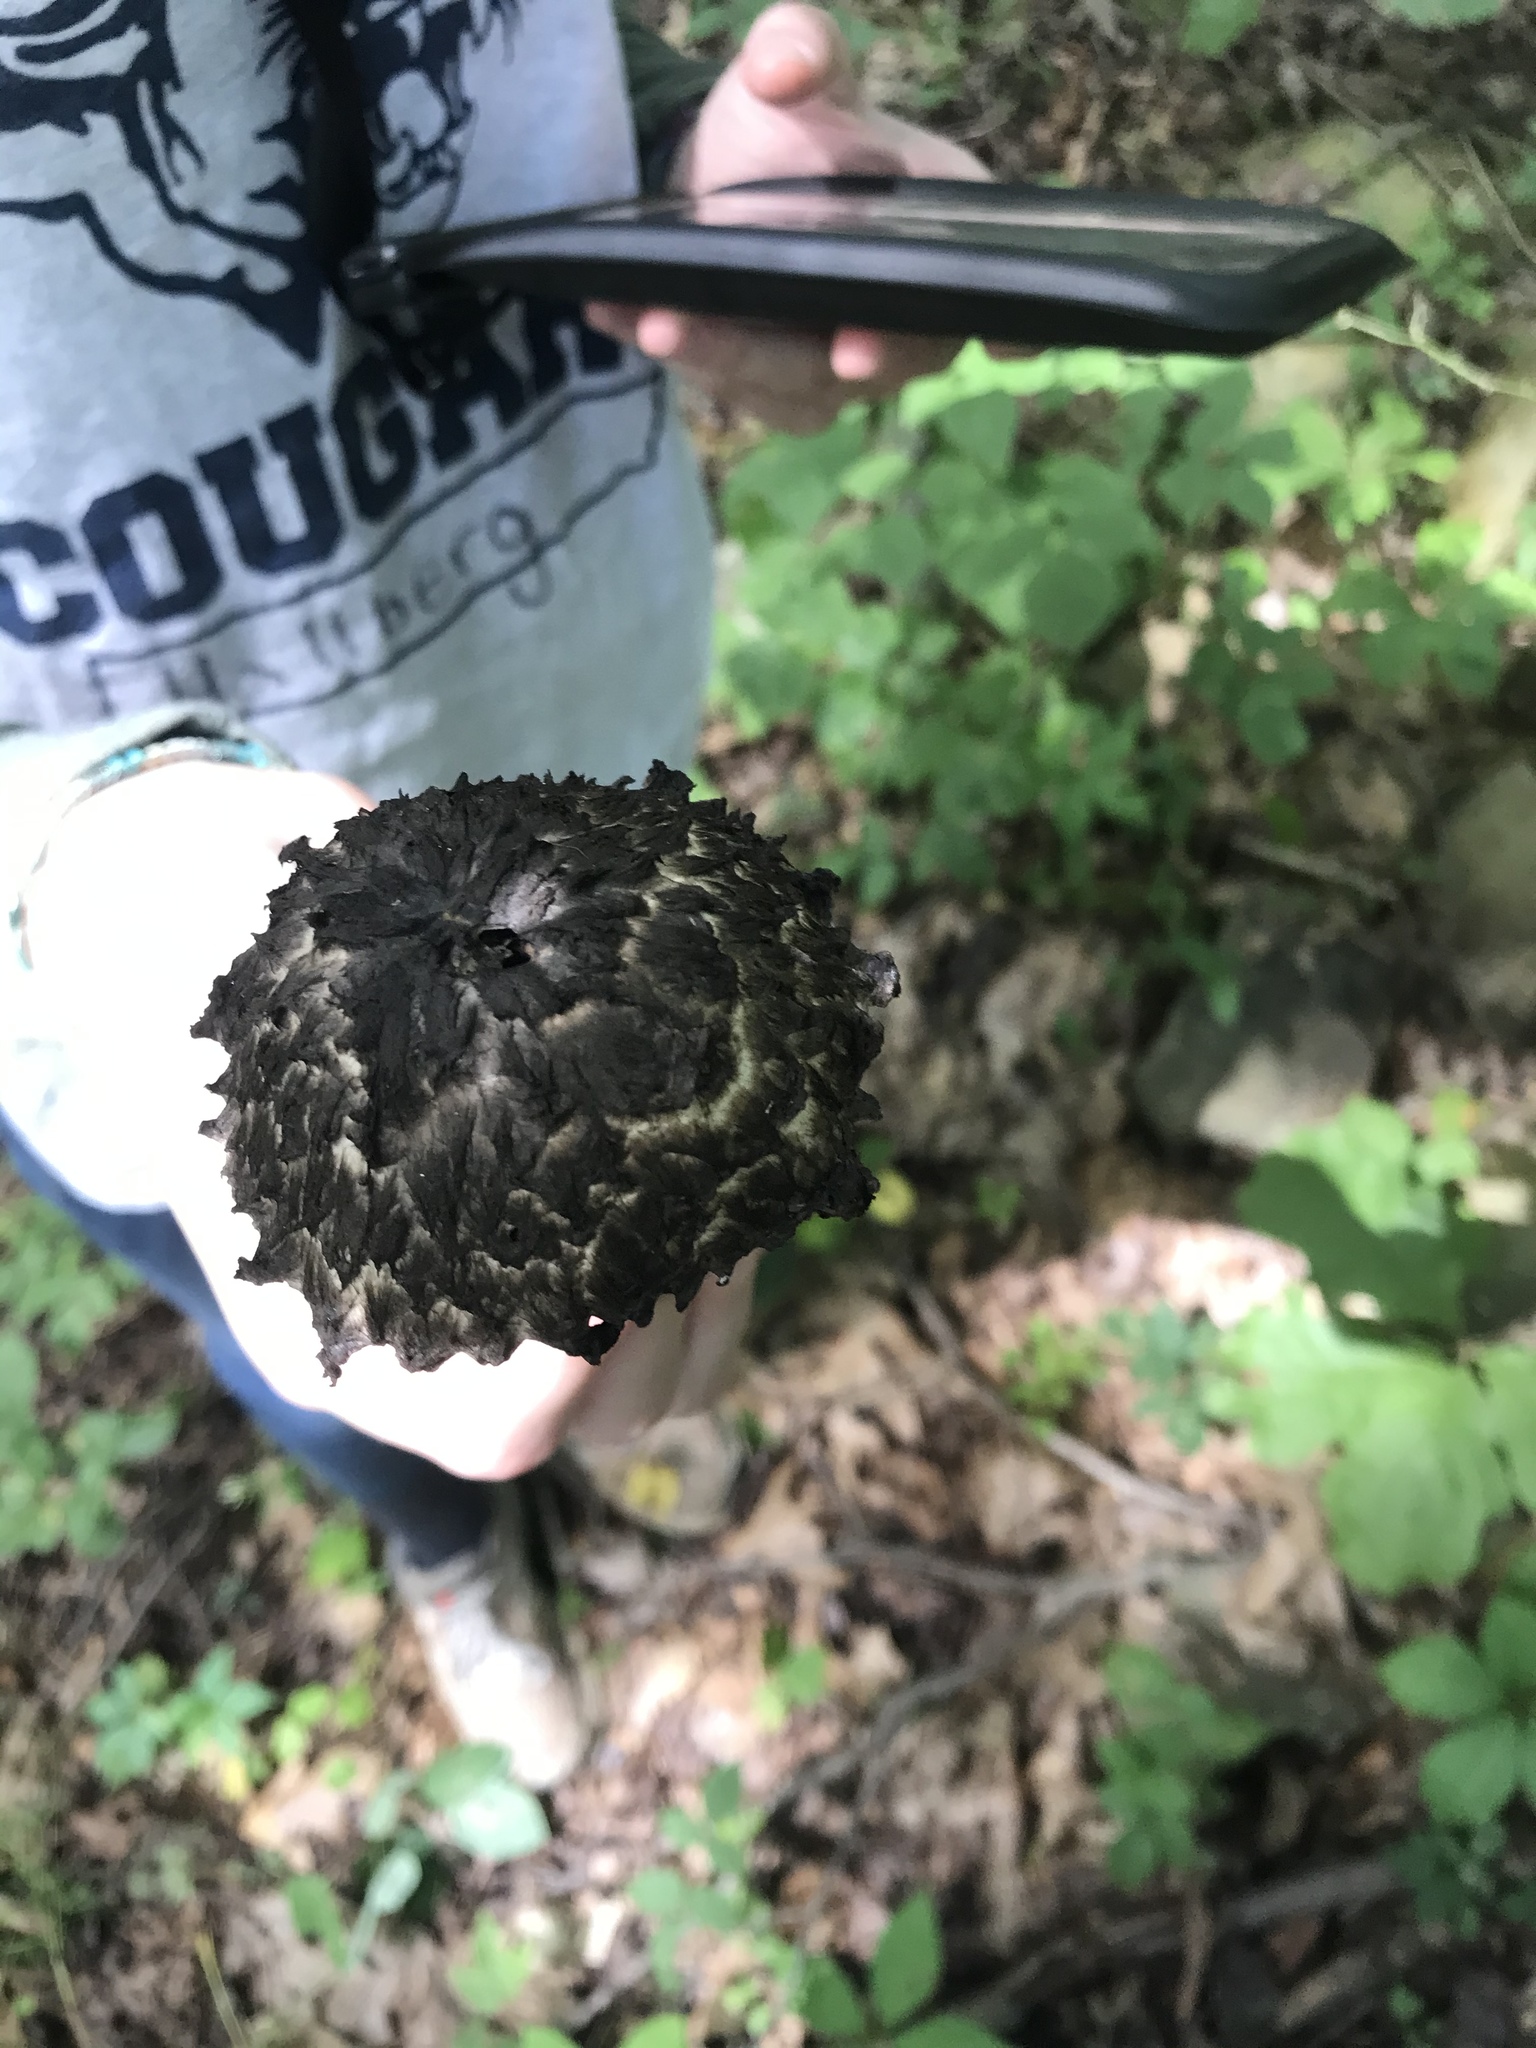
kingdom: Fungi
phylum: Basidiomycota
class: Agaricomycetes
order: Boletales
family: Boletaceae
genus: Strobilomyces
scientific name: Strobilomyces strobilaceus
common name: Old man of the woods
